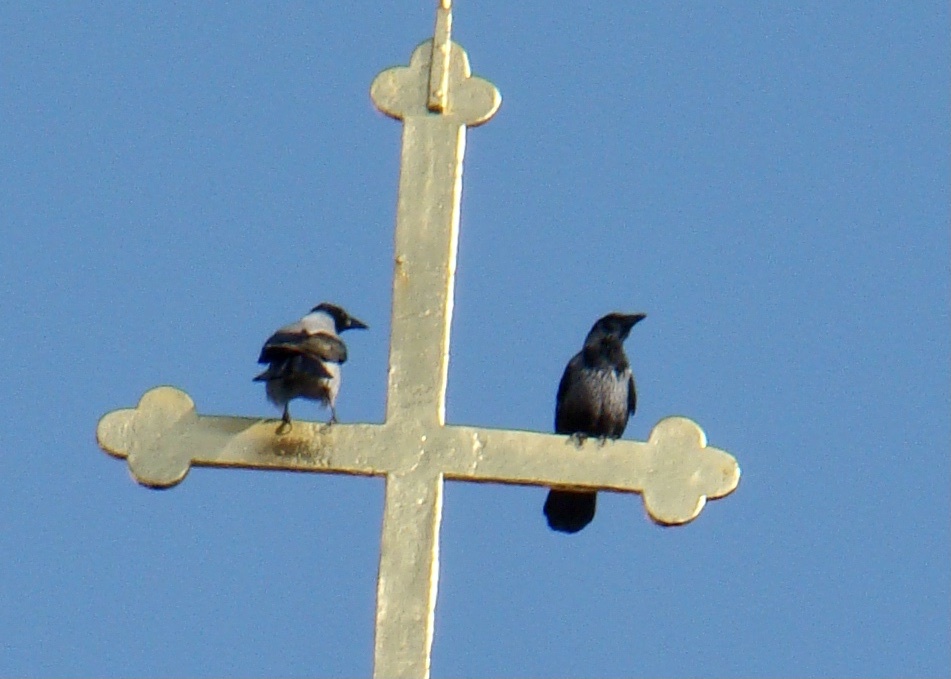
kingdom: Animalia
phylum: Chordata
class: Aves
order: Passeriformes
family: Corvidae
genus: Corvus
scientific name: Corvus cornix
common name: Hooded crow
